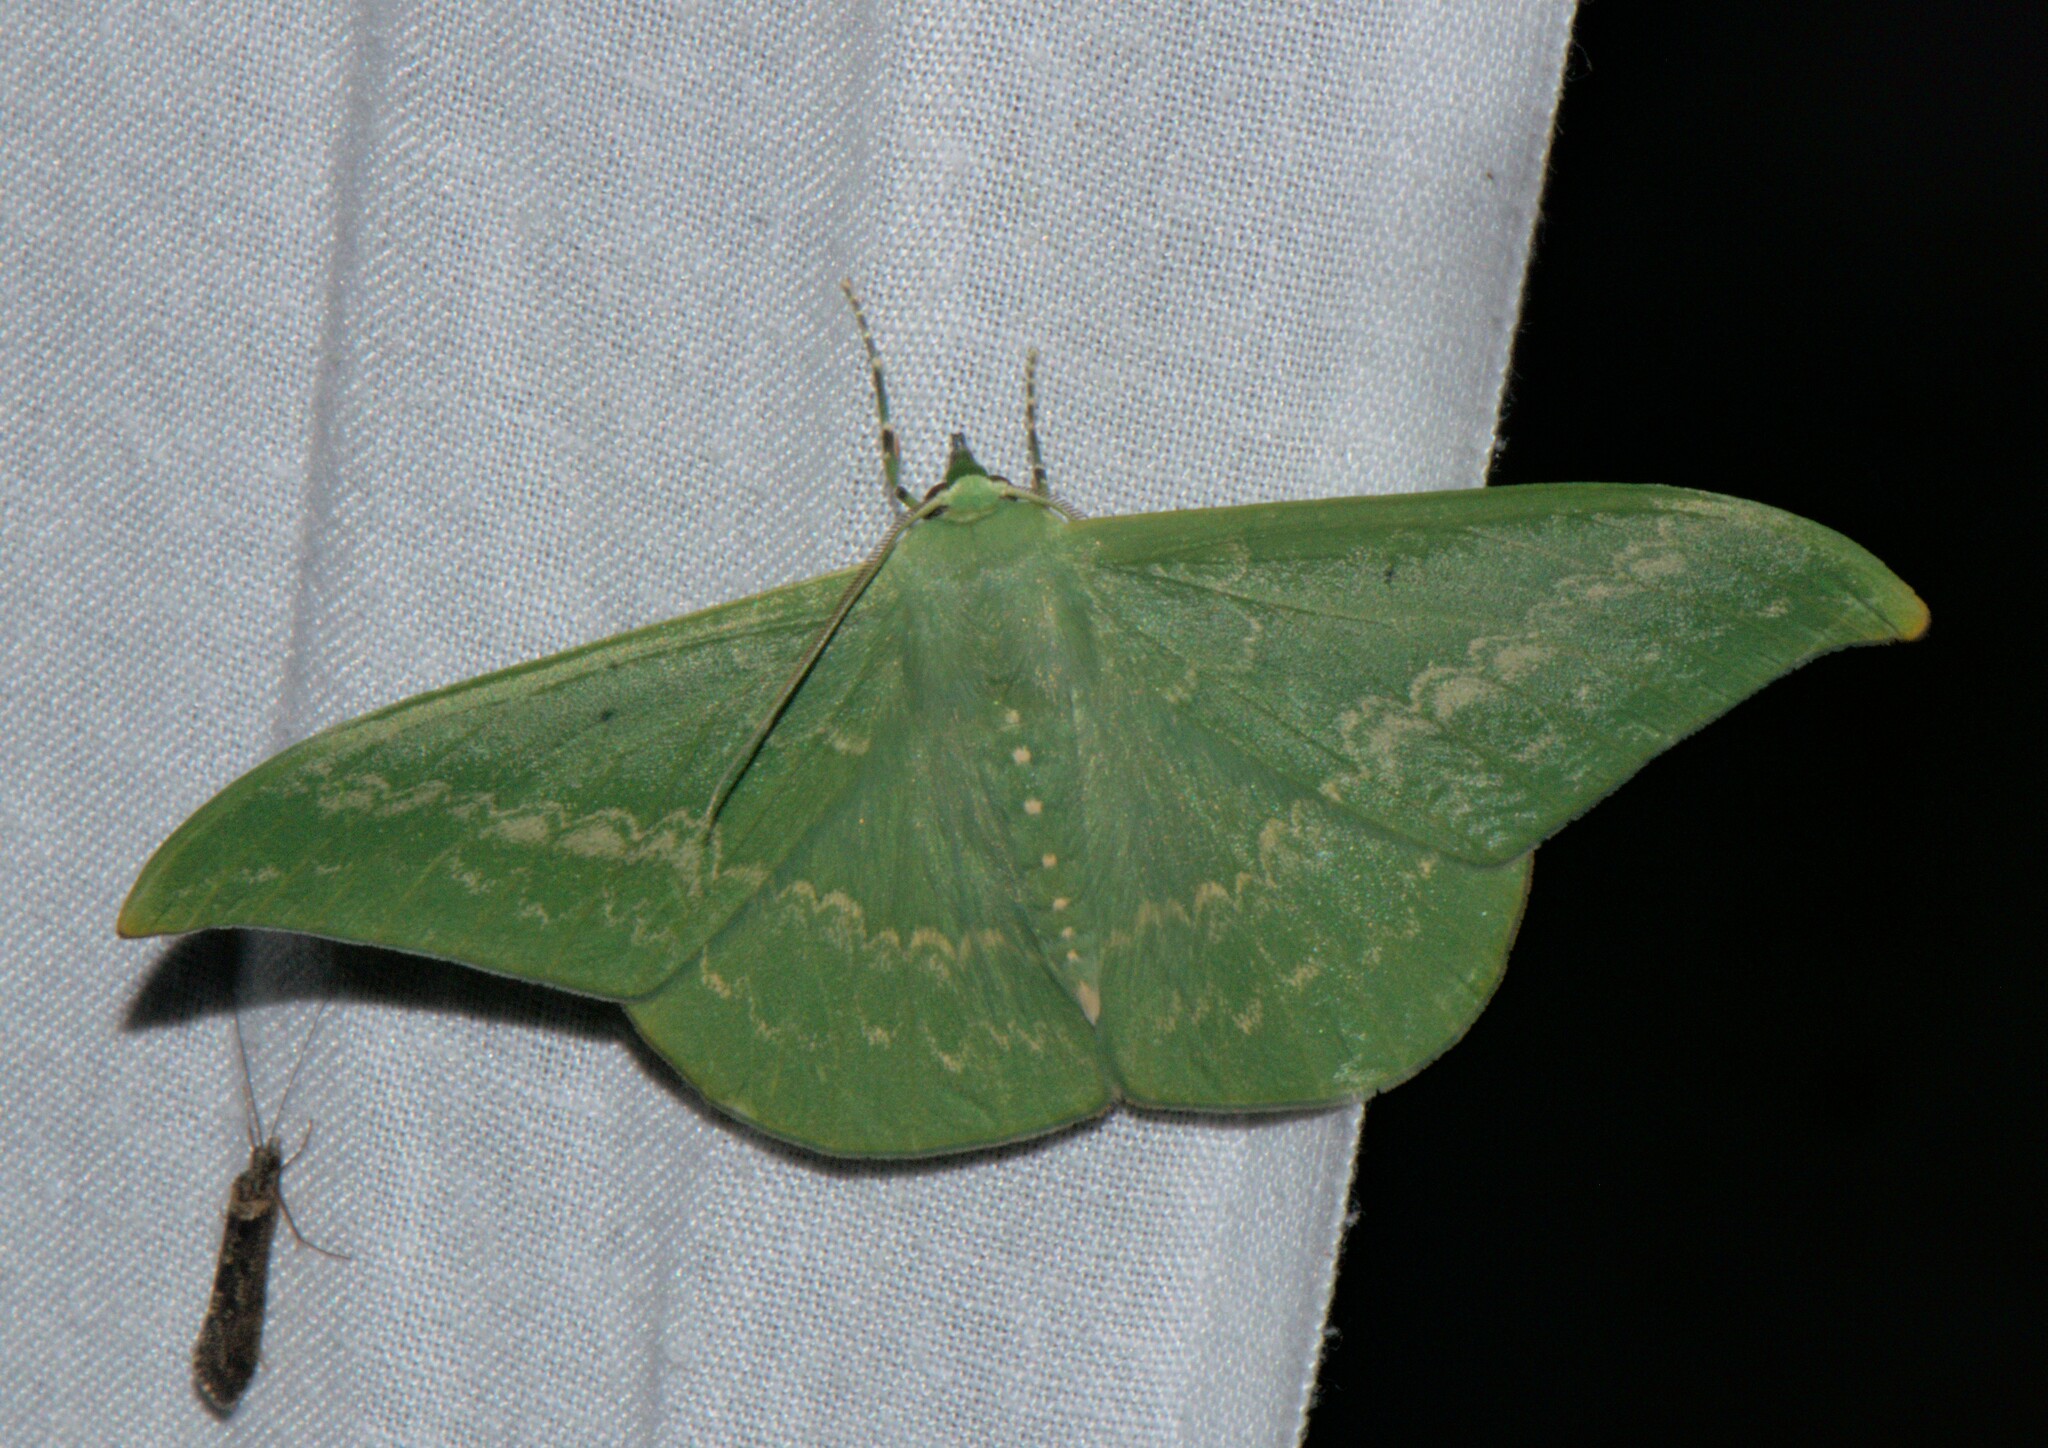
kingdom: Animalia
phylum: Arthropoda
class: Insecta
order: Lepidoptera
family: Geometridae
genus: Tanaorhinus
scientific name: Tanaorhinus reciprocata
